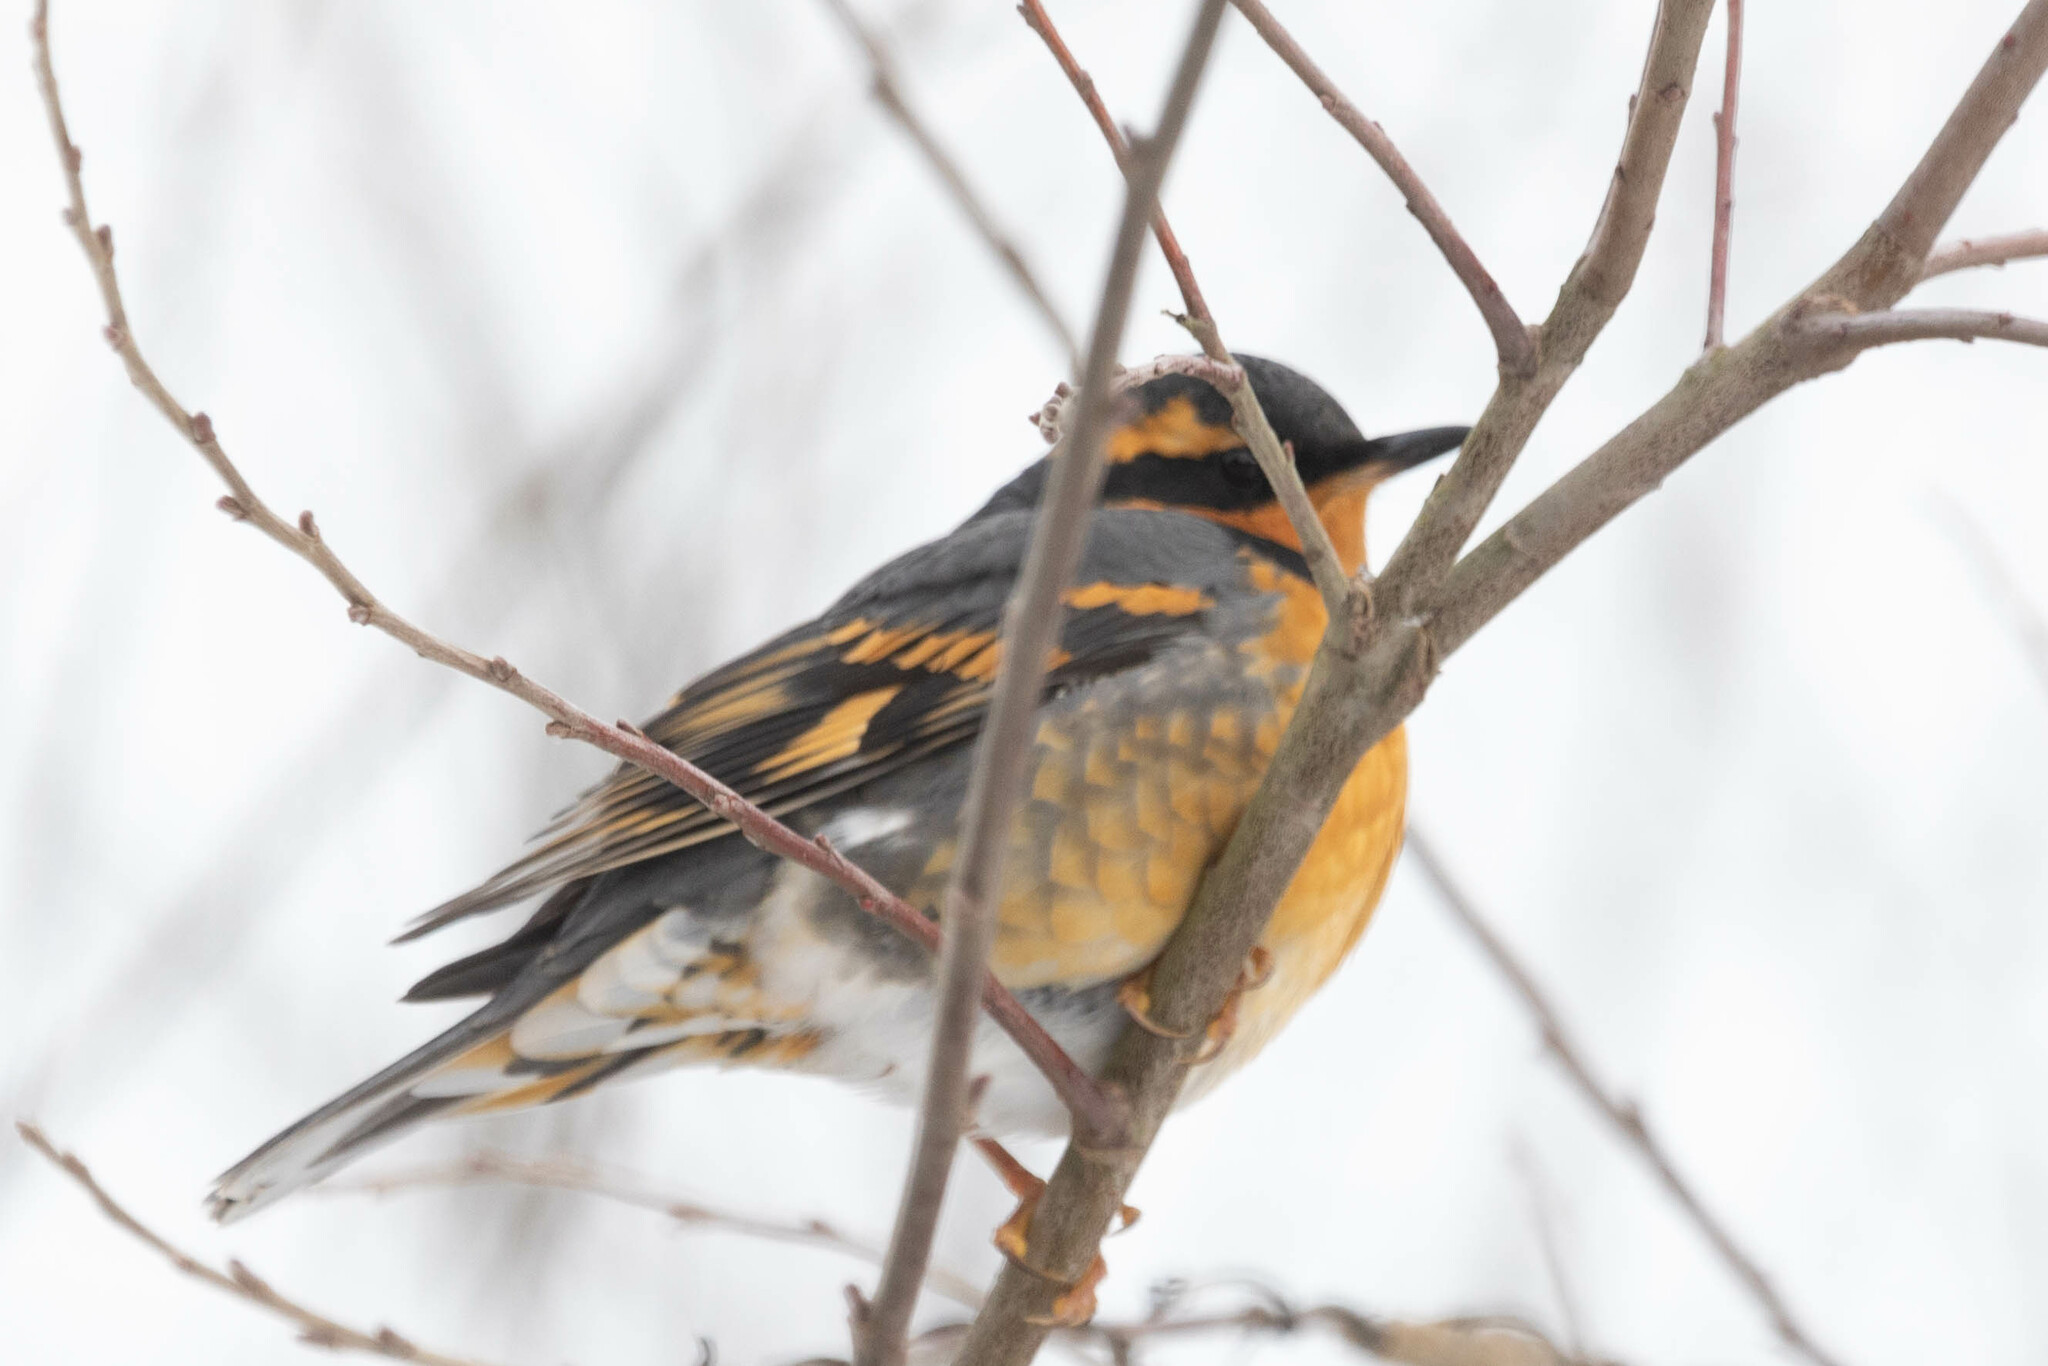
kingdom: Animalia
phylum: Chordata
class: Aves
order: Passeriformes
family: Turdidae
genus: Ixoreus
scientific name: Ixoreus naevius
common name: Varied thrush
